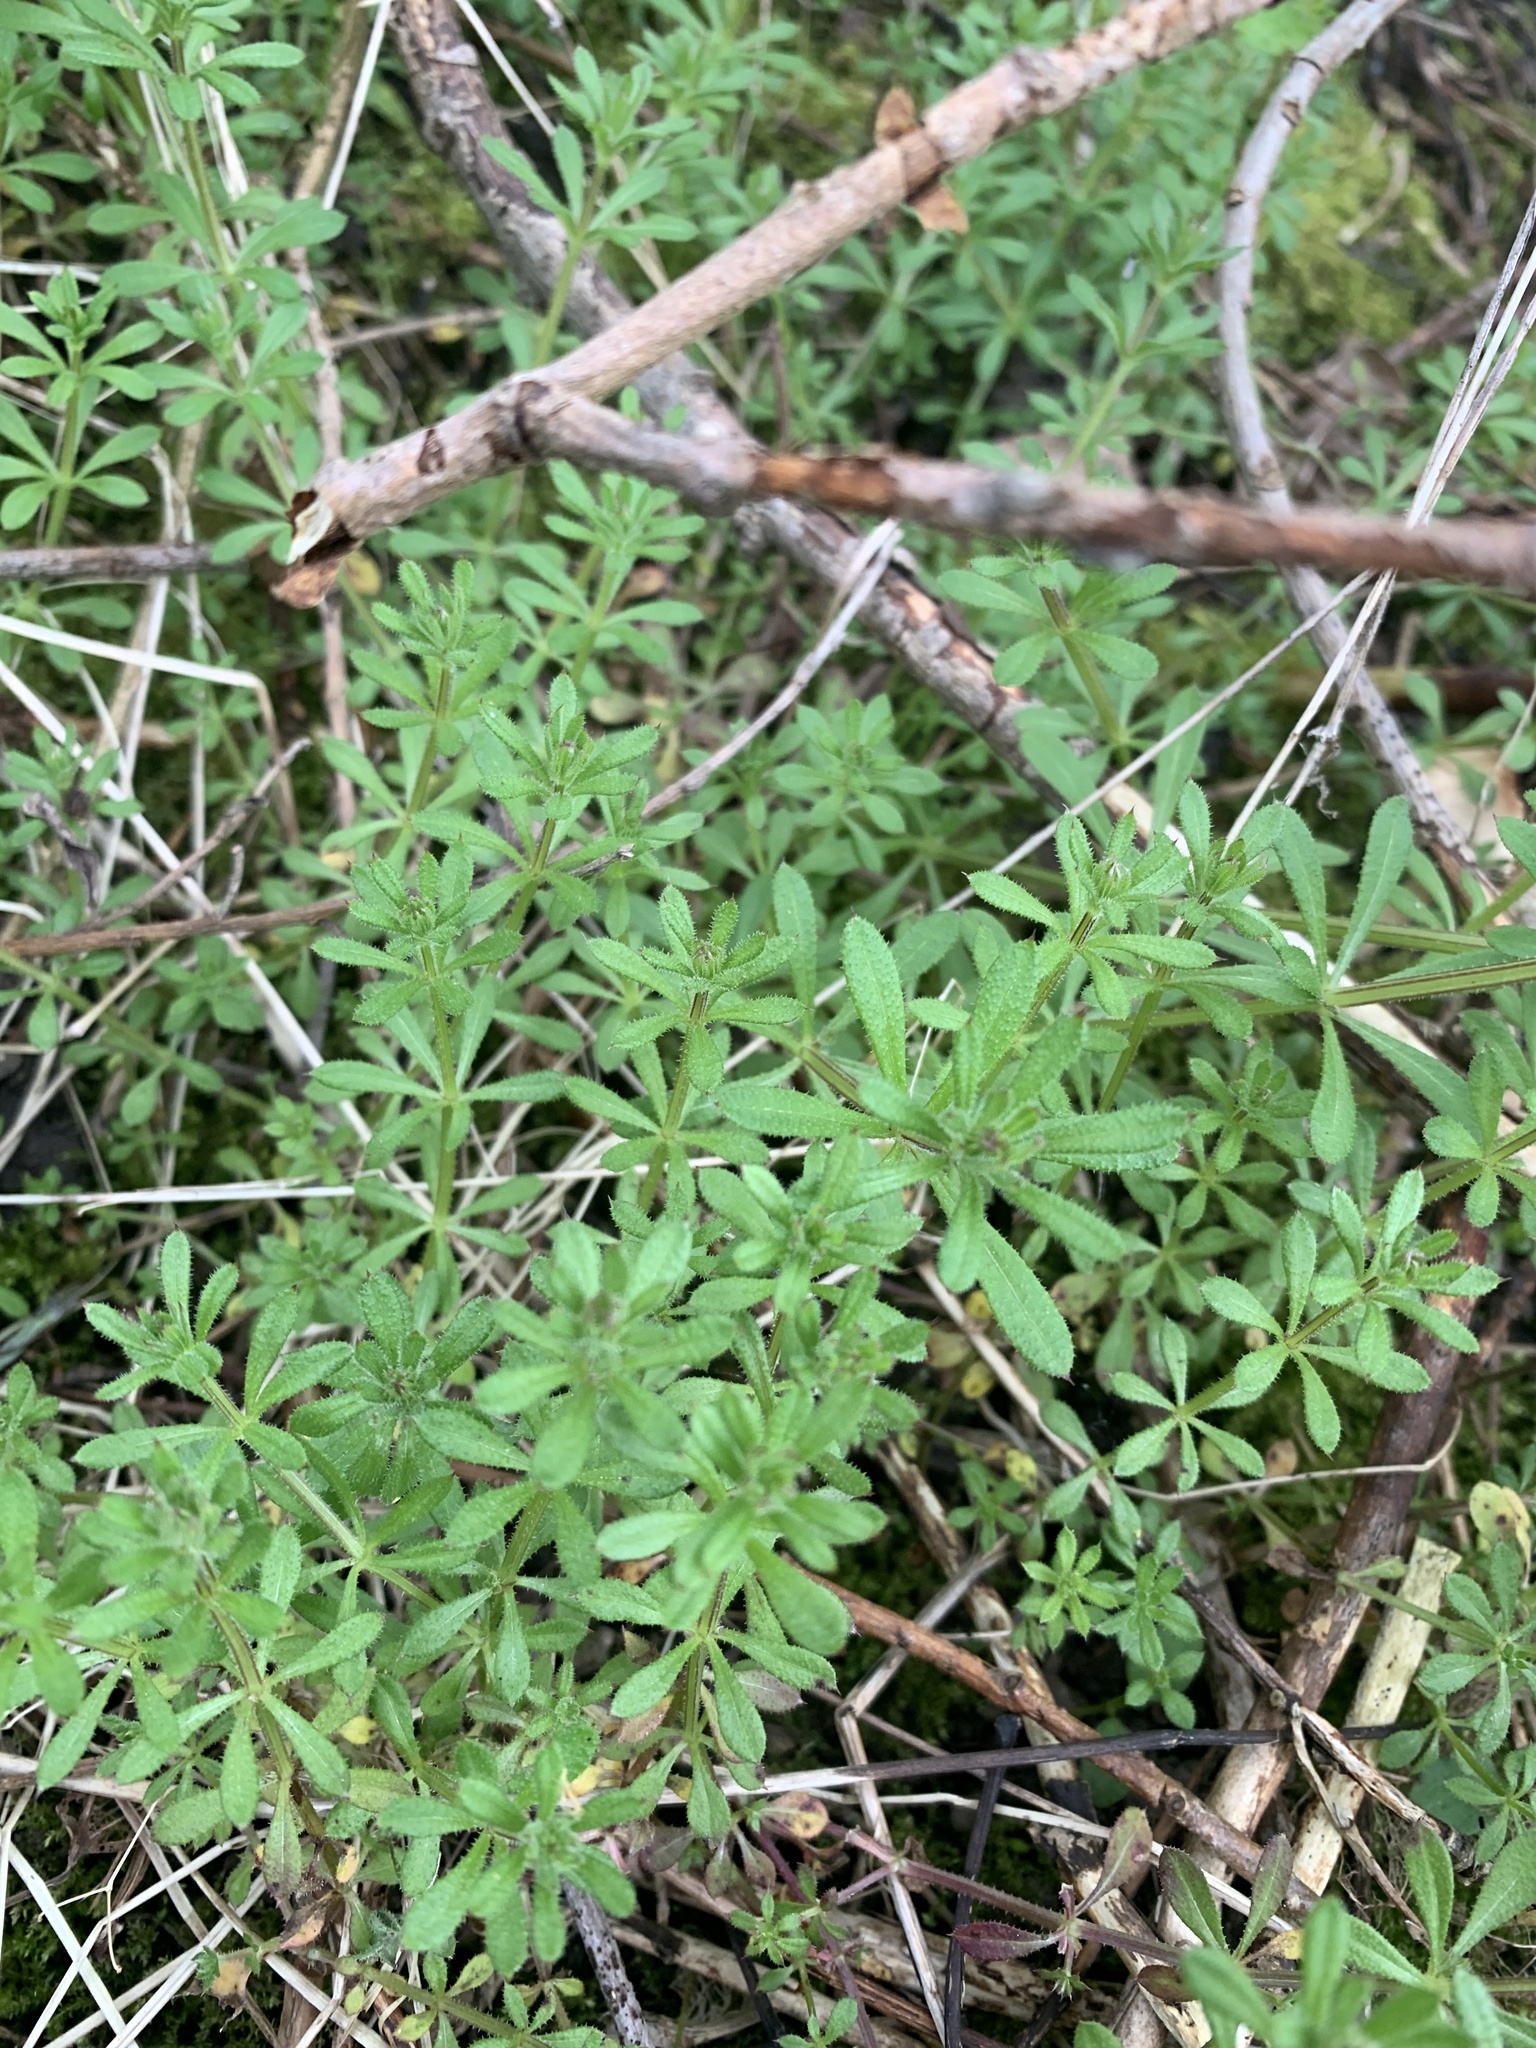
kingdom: Plantae
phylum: Tracheophyta
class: Magnoliopsida
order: Gentianales
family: Rubiaceae
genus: Galium
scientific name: Galium aparine
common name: Cleavers
